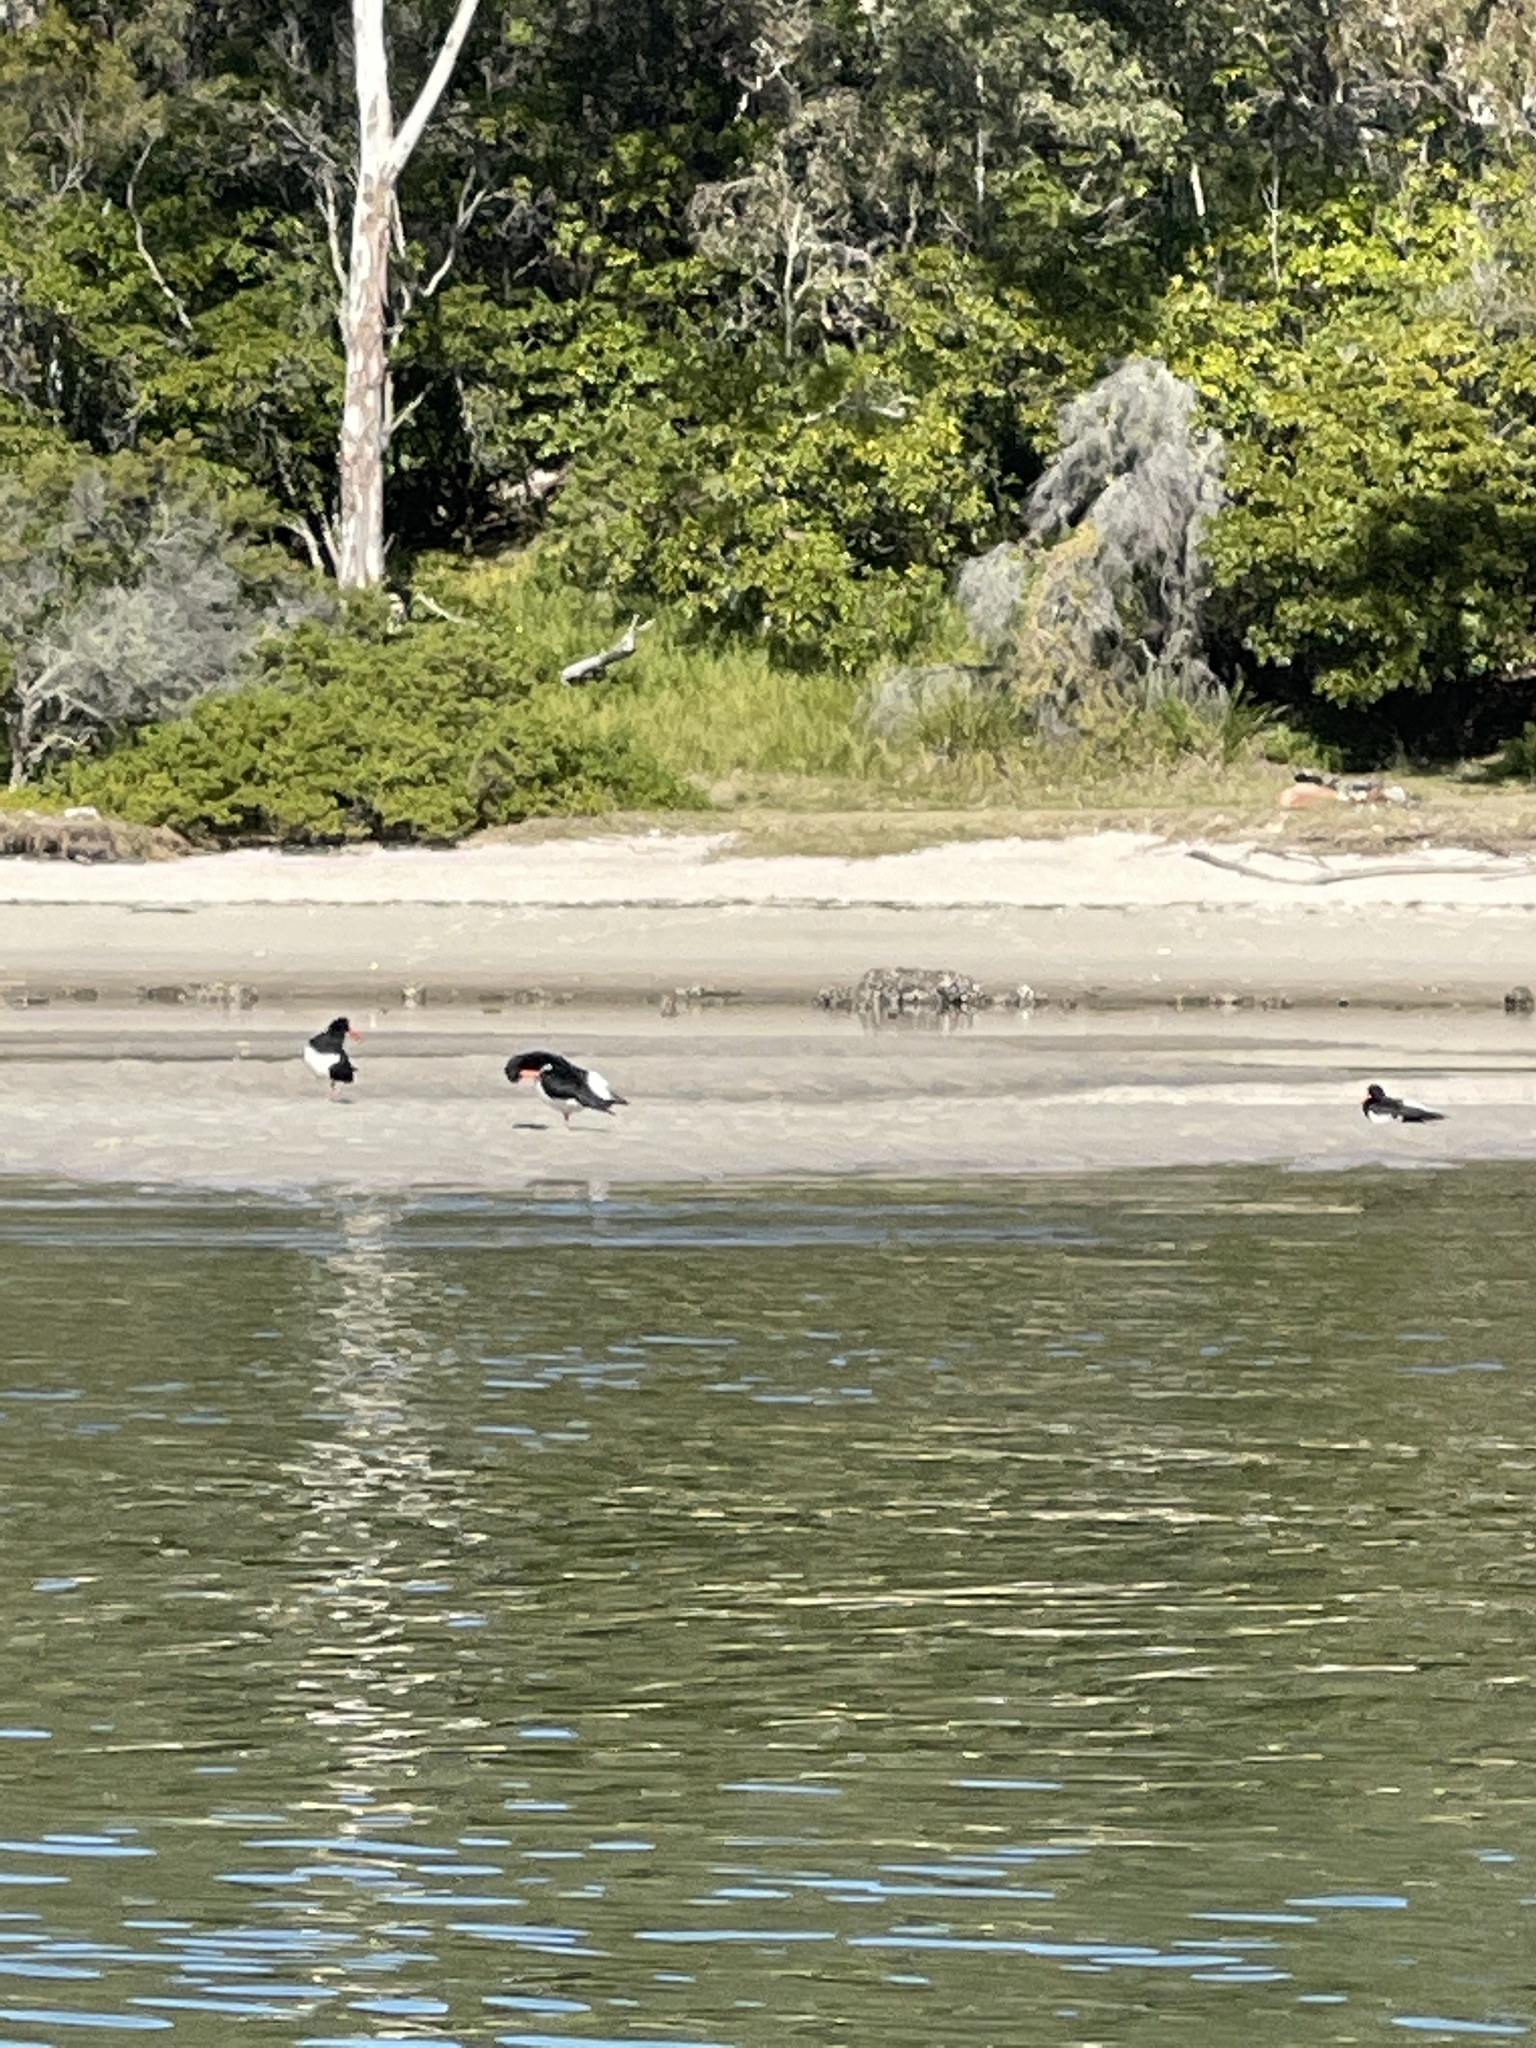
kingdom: Animalia
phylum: Chordata
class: Aves
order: Charadriiformes
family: Haematopodidae
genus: Haematopus
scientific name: Haematopus longirostris
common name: Pied oystercatcher
